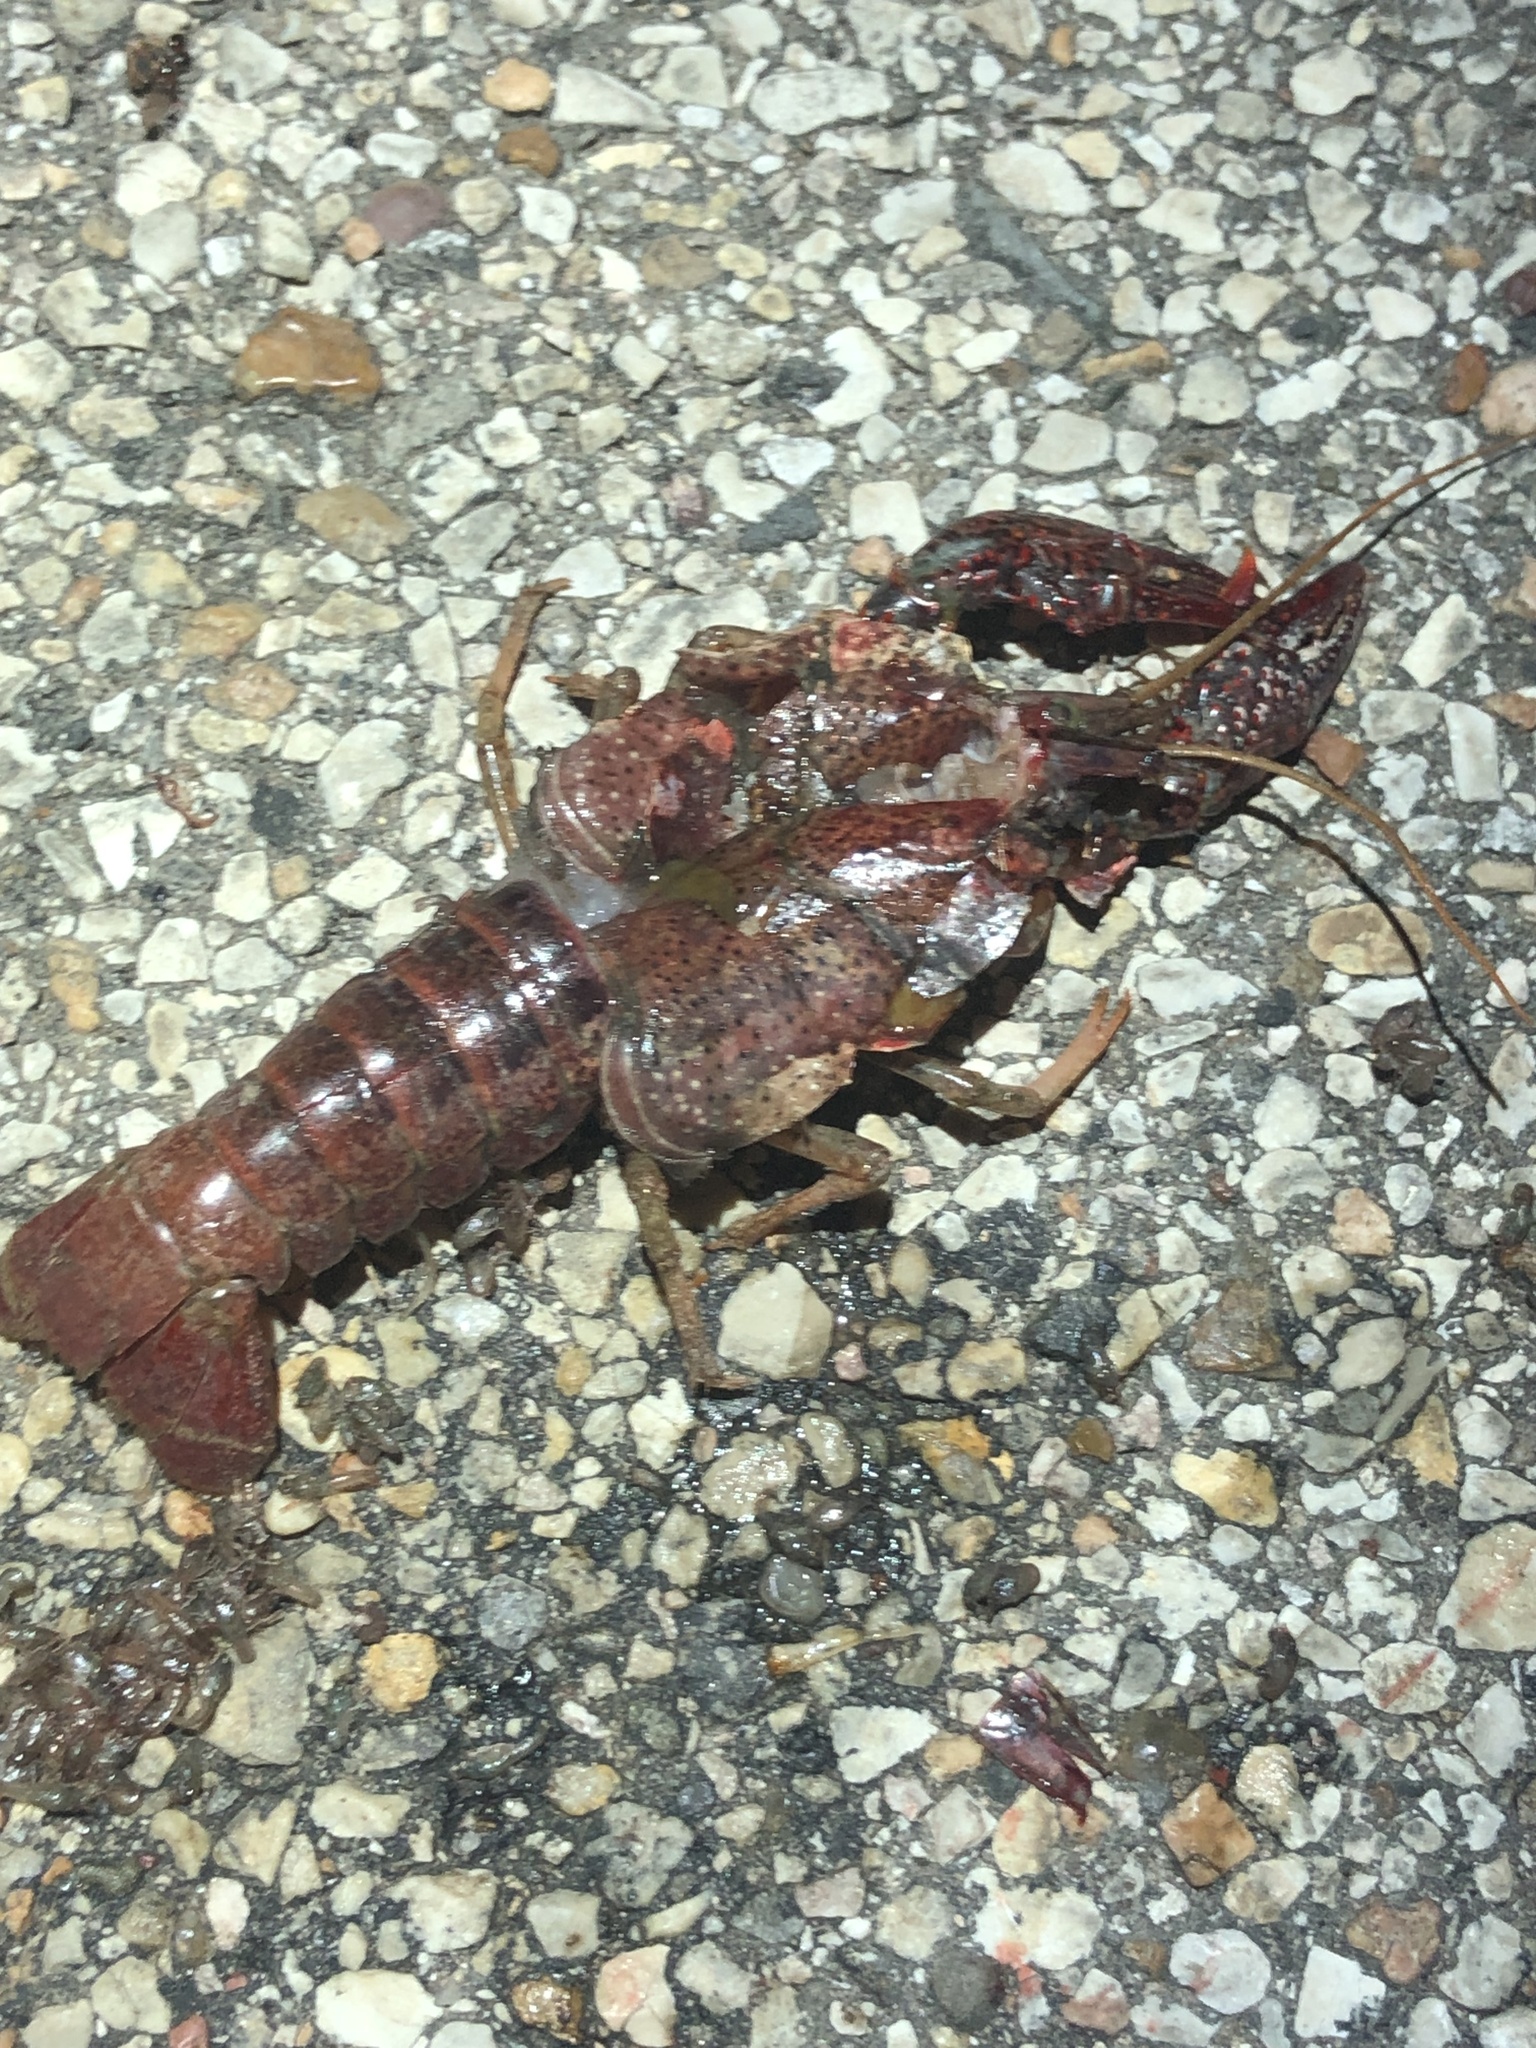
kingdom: Animalia
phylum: Arthropoda
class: Malacostraca
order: Decapoda
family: Cambaridae
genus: Procambarus
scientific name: Procambarus clarkii
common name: Red swamp crayfish
